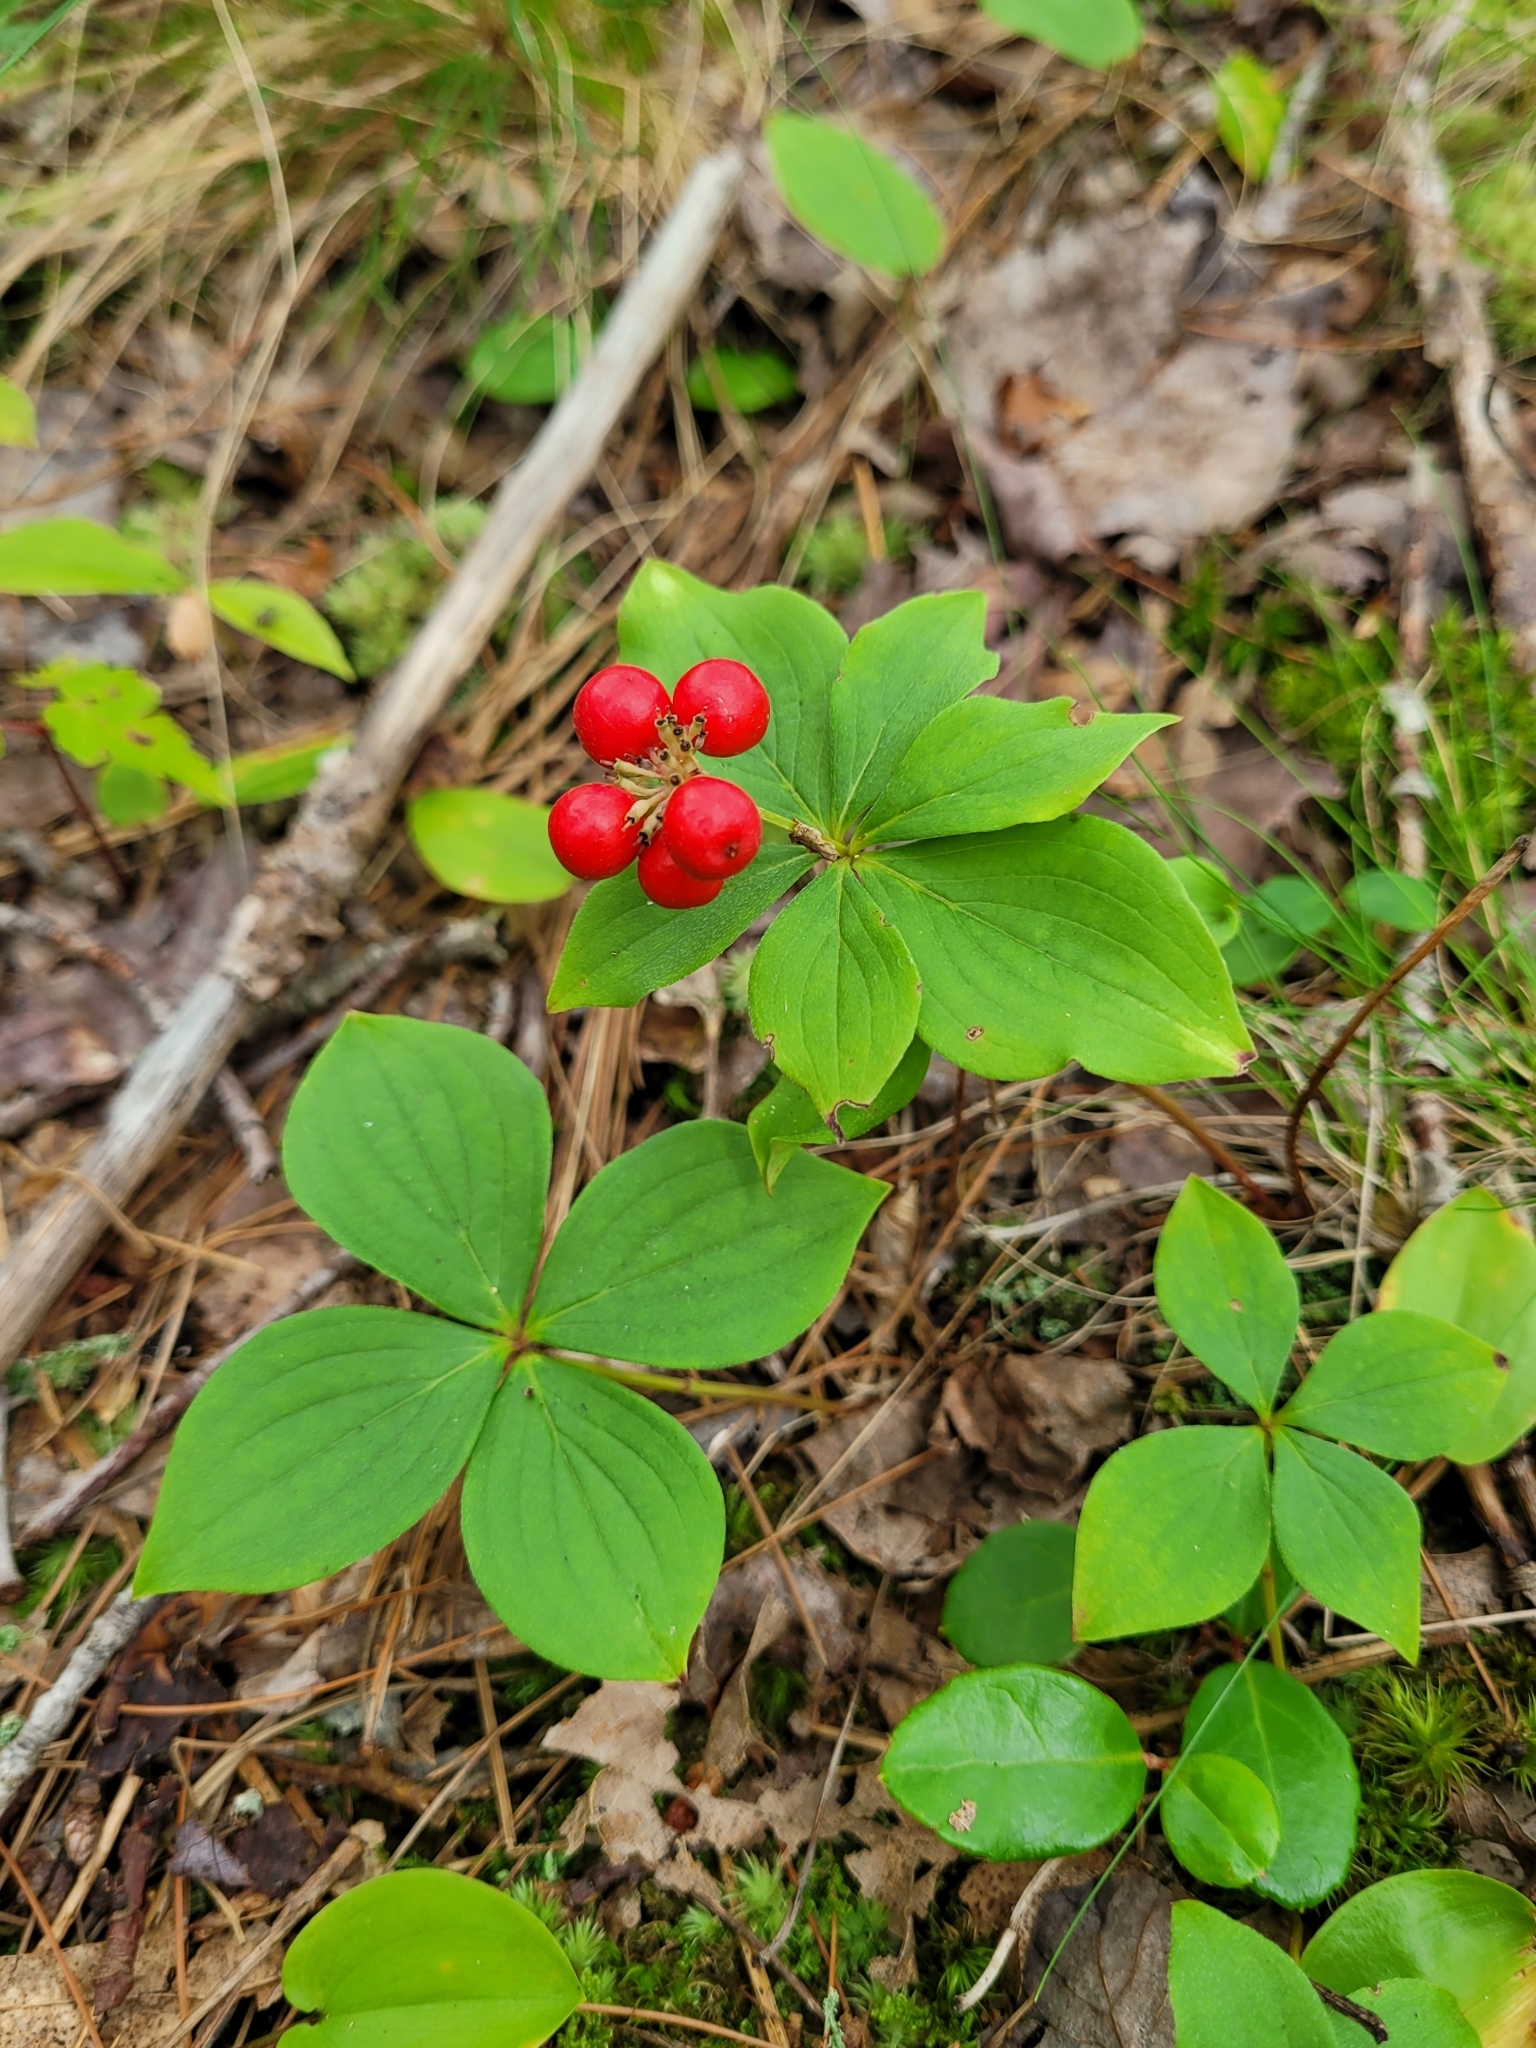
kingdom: Plantae
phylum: Tracheophyta
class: Magnoliopsida
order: Cornales
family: Cornaceae
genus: Cornus
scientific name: Cornus canadensis
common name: Creeping dogwood
